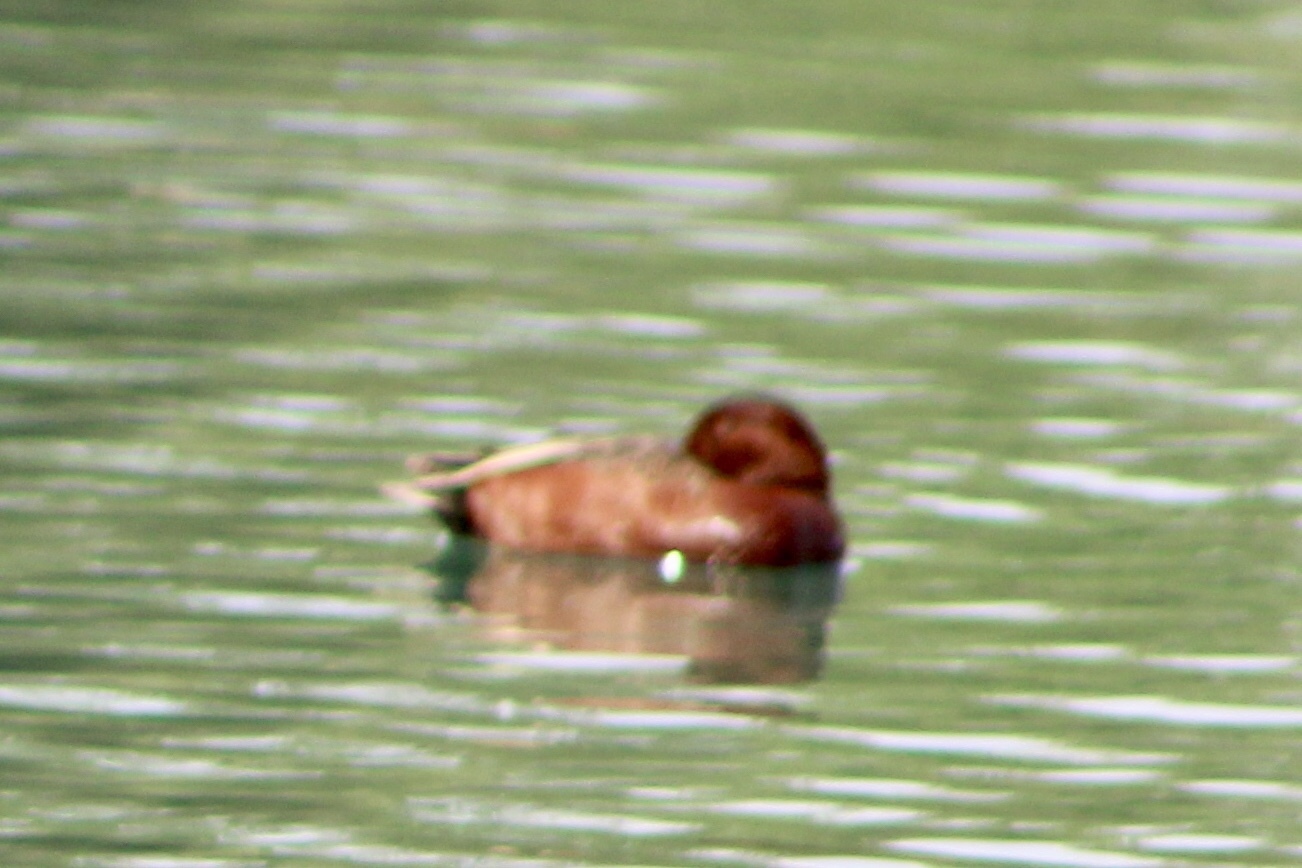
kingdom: Animalia
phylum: Chordata
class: Aves
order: Anseriformes
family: Anatidae
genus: Spatula
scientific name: Spatula cyanoptera
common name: Cinnamon teal
